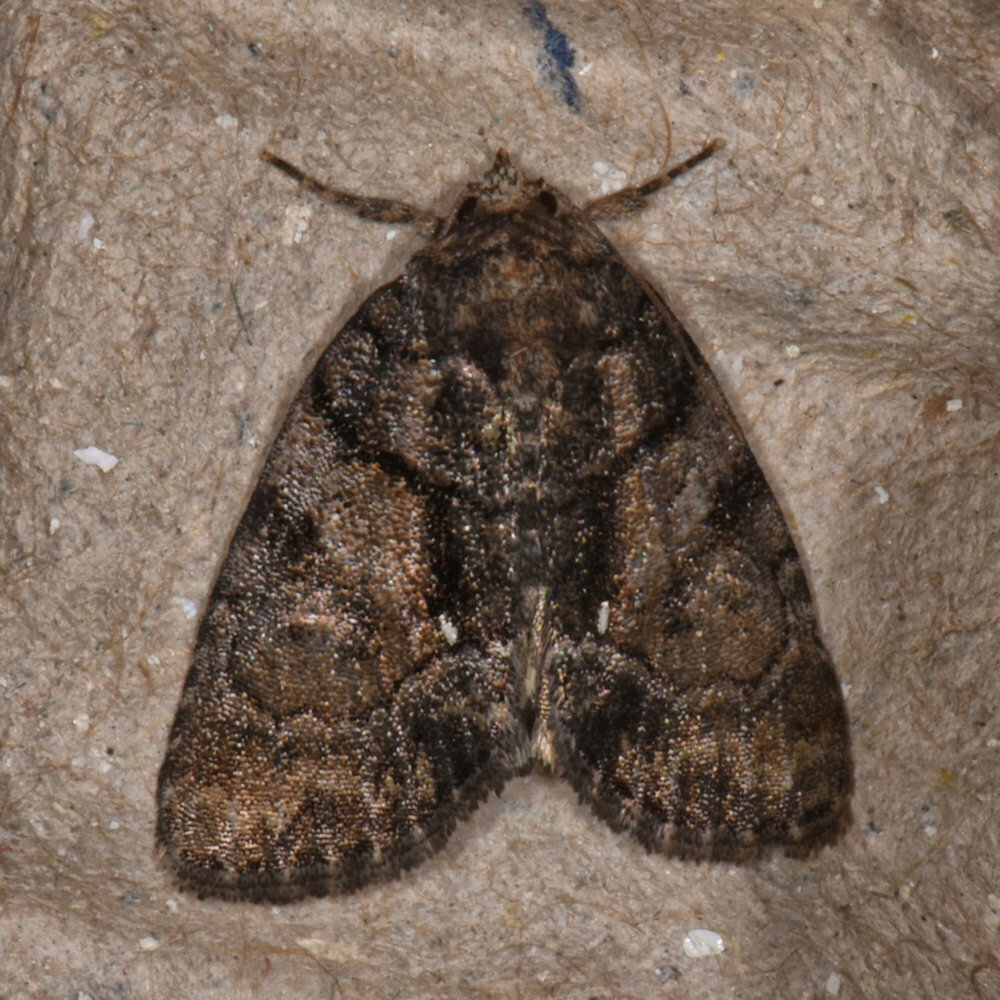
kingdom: Animalia
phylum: Arthropoda
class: Insecta
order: Lepidoptera
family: Noctuidae
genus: Chytonix
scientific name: Chytonix palliatricula
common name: Cloaked marvel
